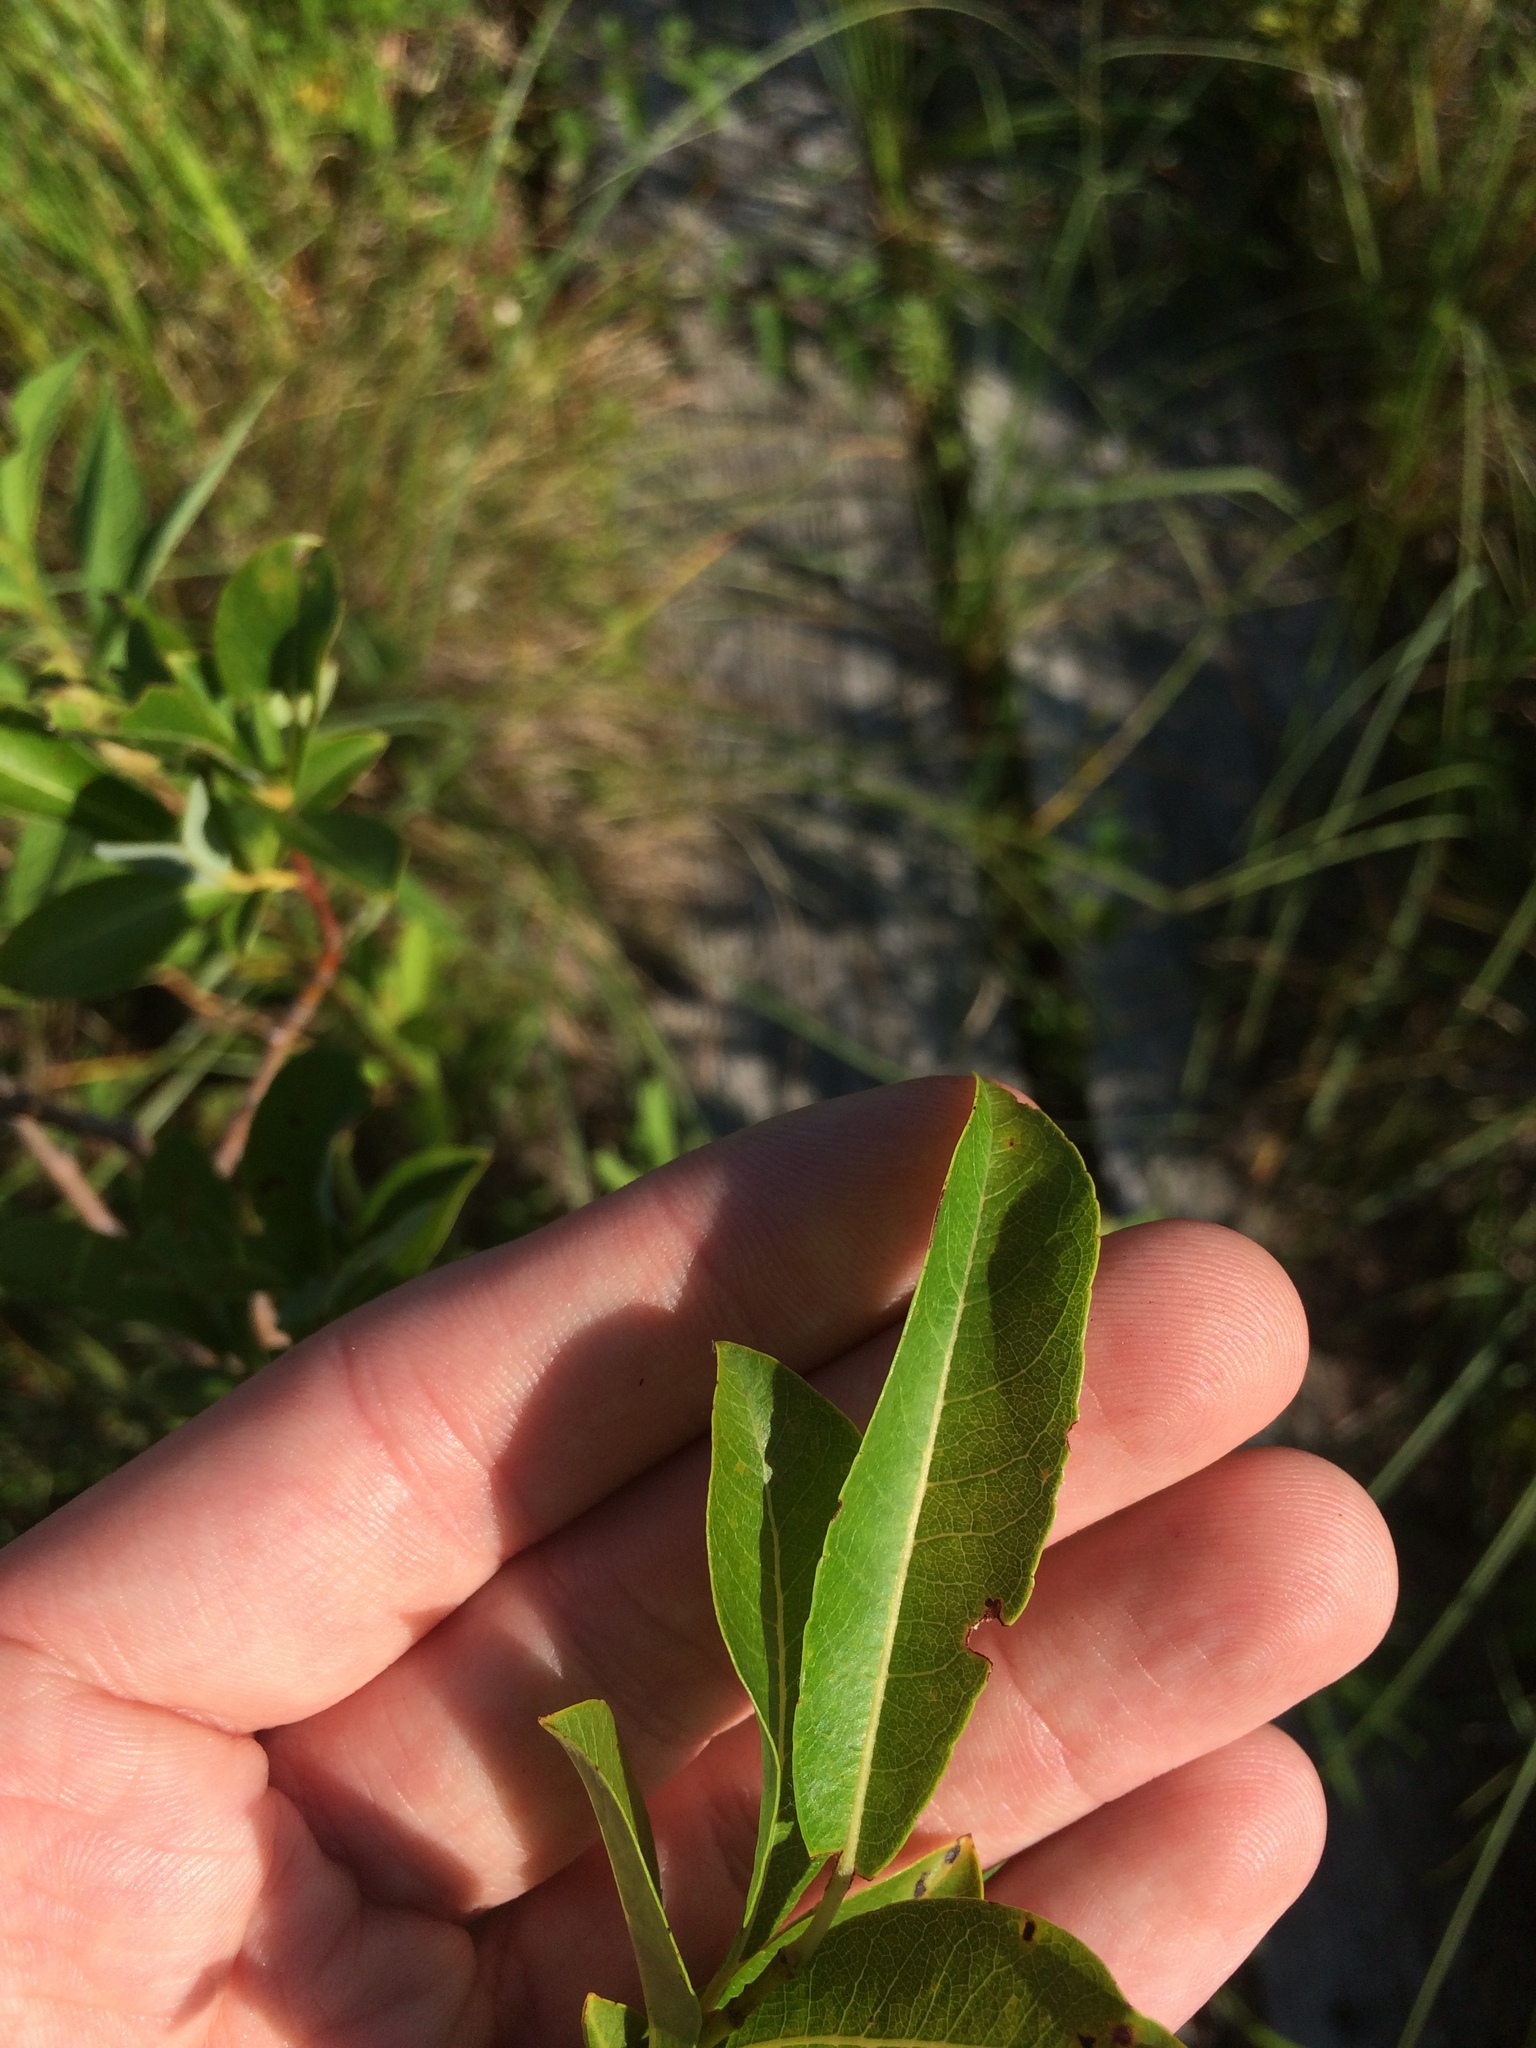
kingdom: Plantae
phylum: Tracheophyta
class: Magnoliopsida
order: Malpighiales
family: Salicaceae
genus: Salix
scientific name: Salix discolor
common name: Glaucous willow
